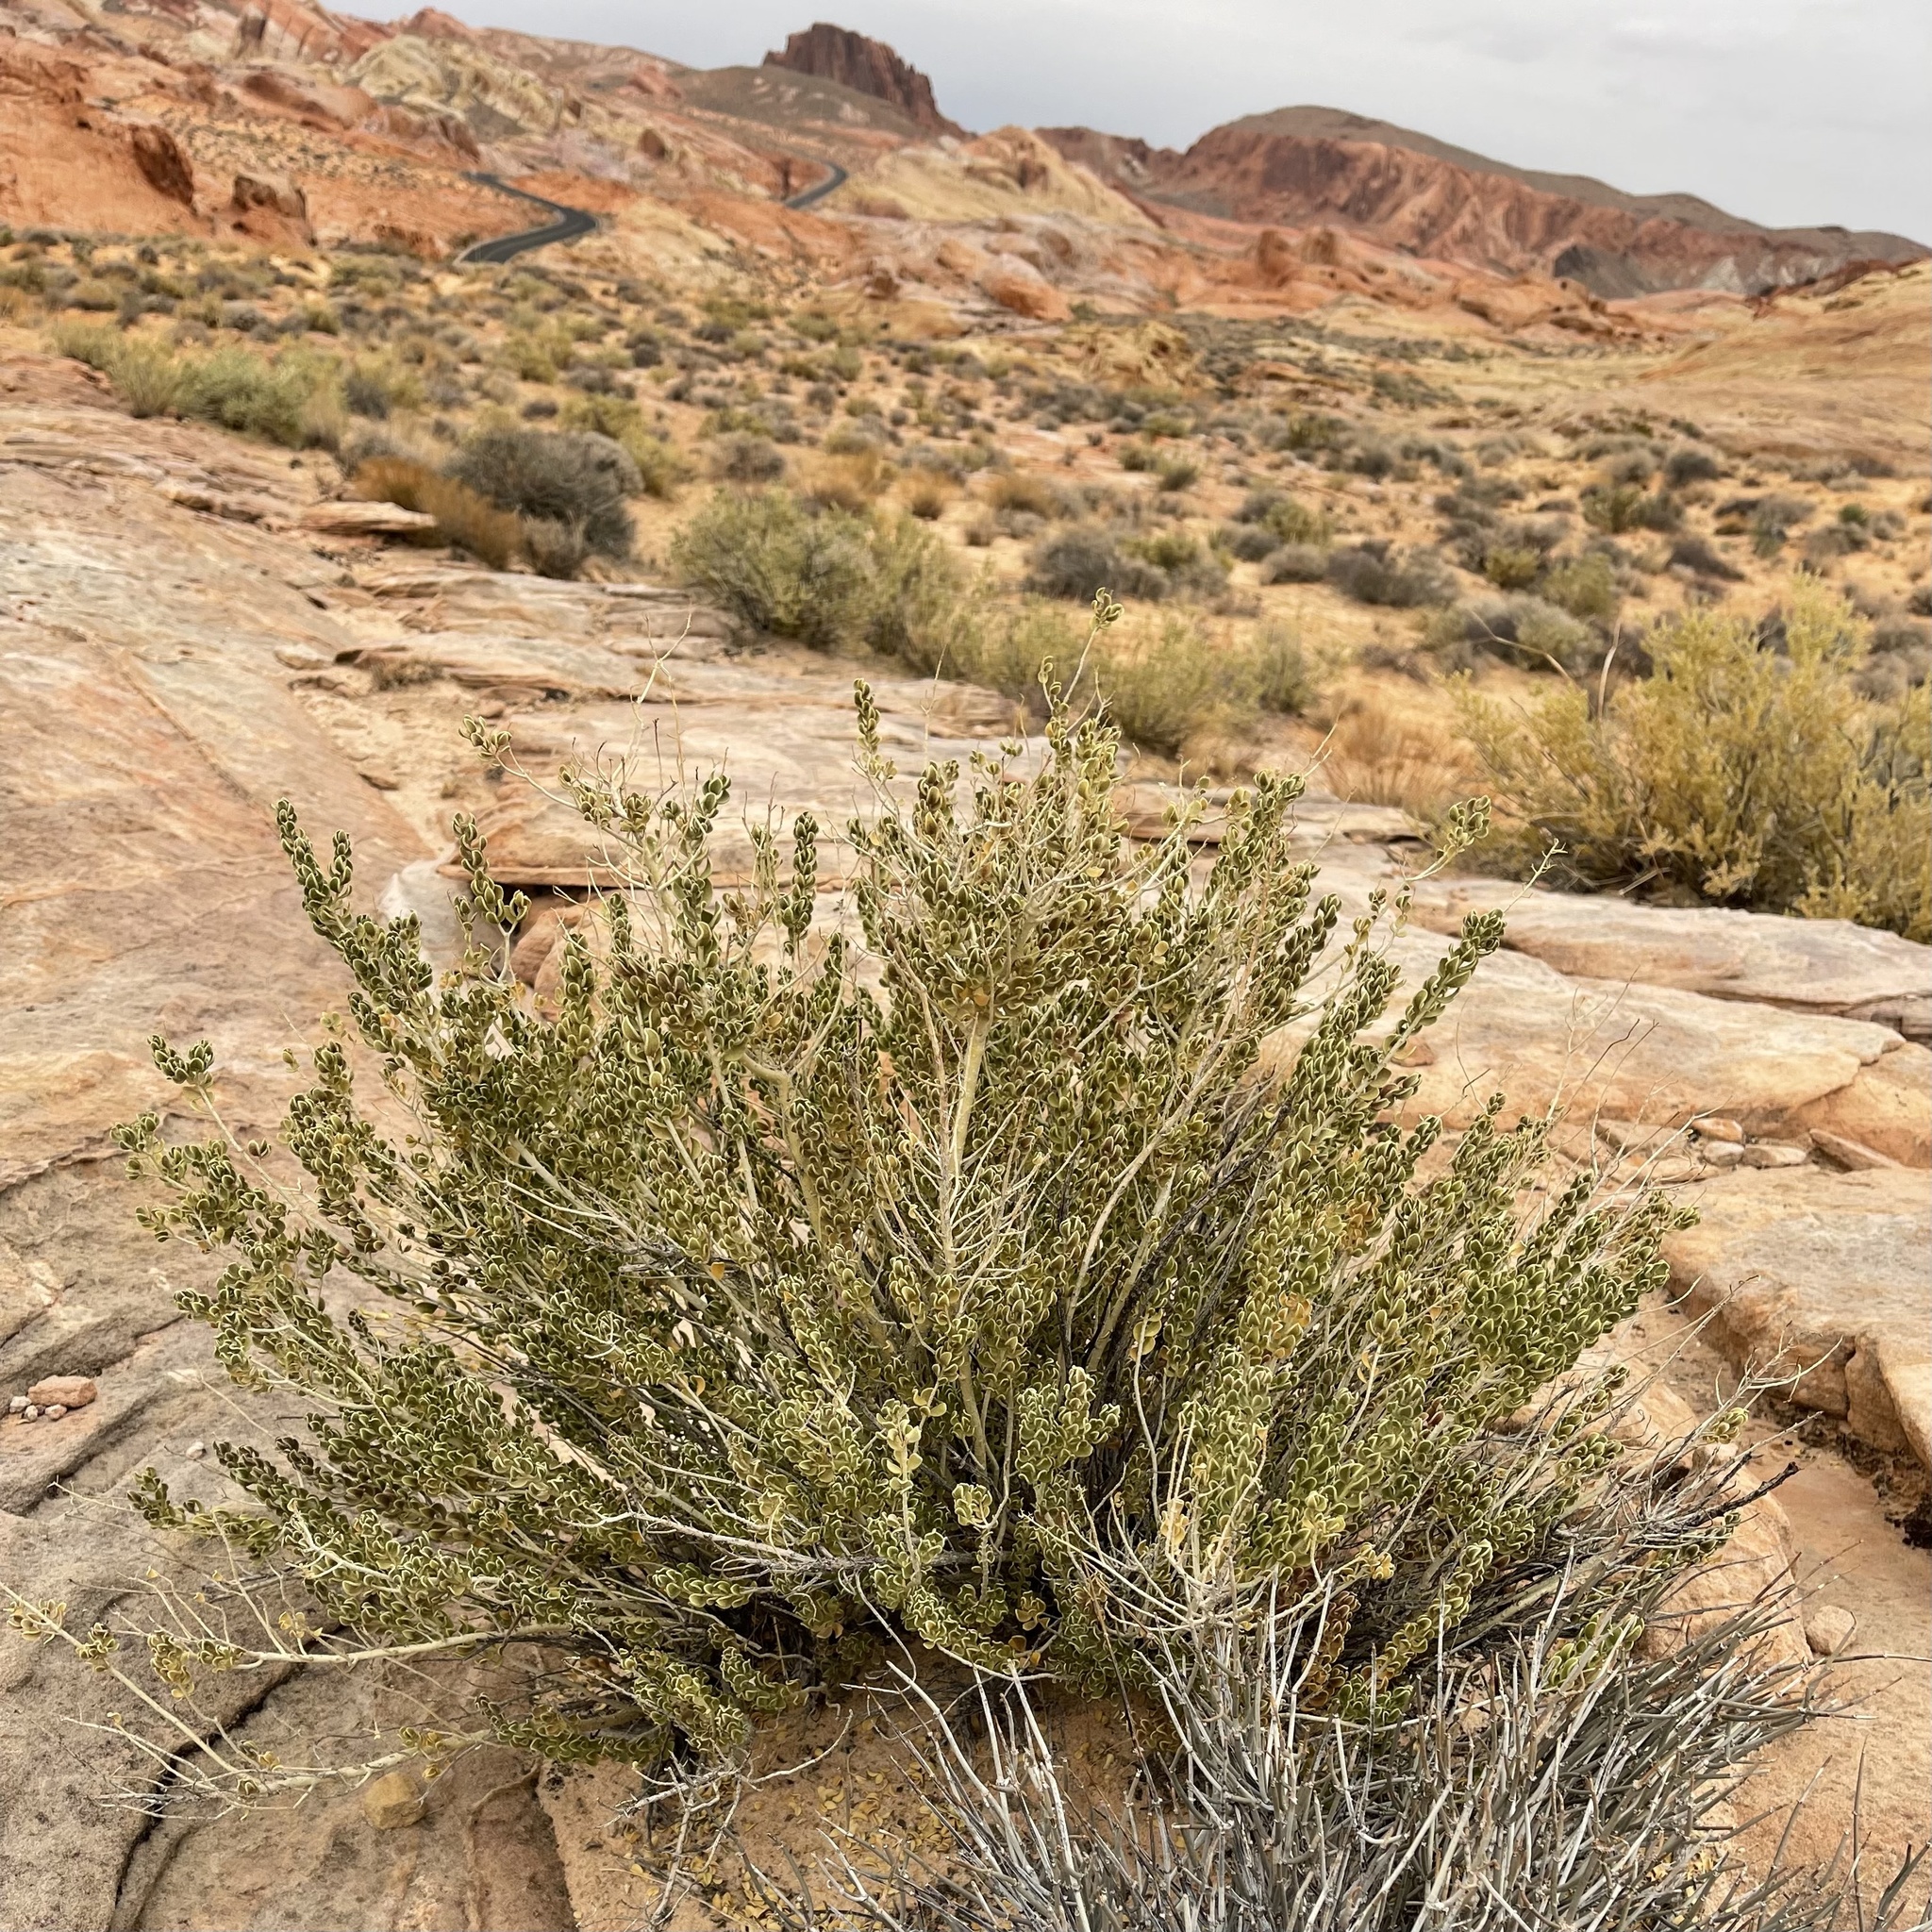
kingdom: Plantae
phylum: Tracheophyta
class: Magnoliopsida
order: Celastrales
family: Celastraceae
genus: Mortonia
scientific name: Mortonia utahensis
